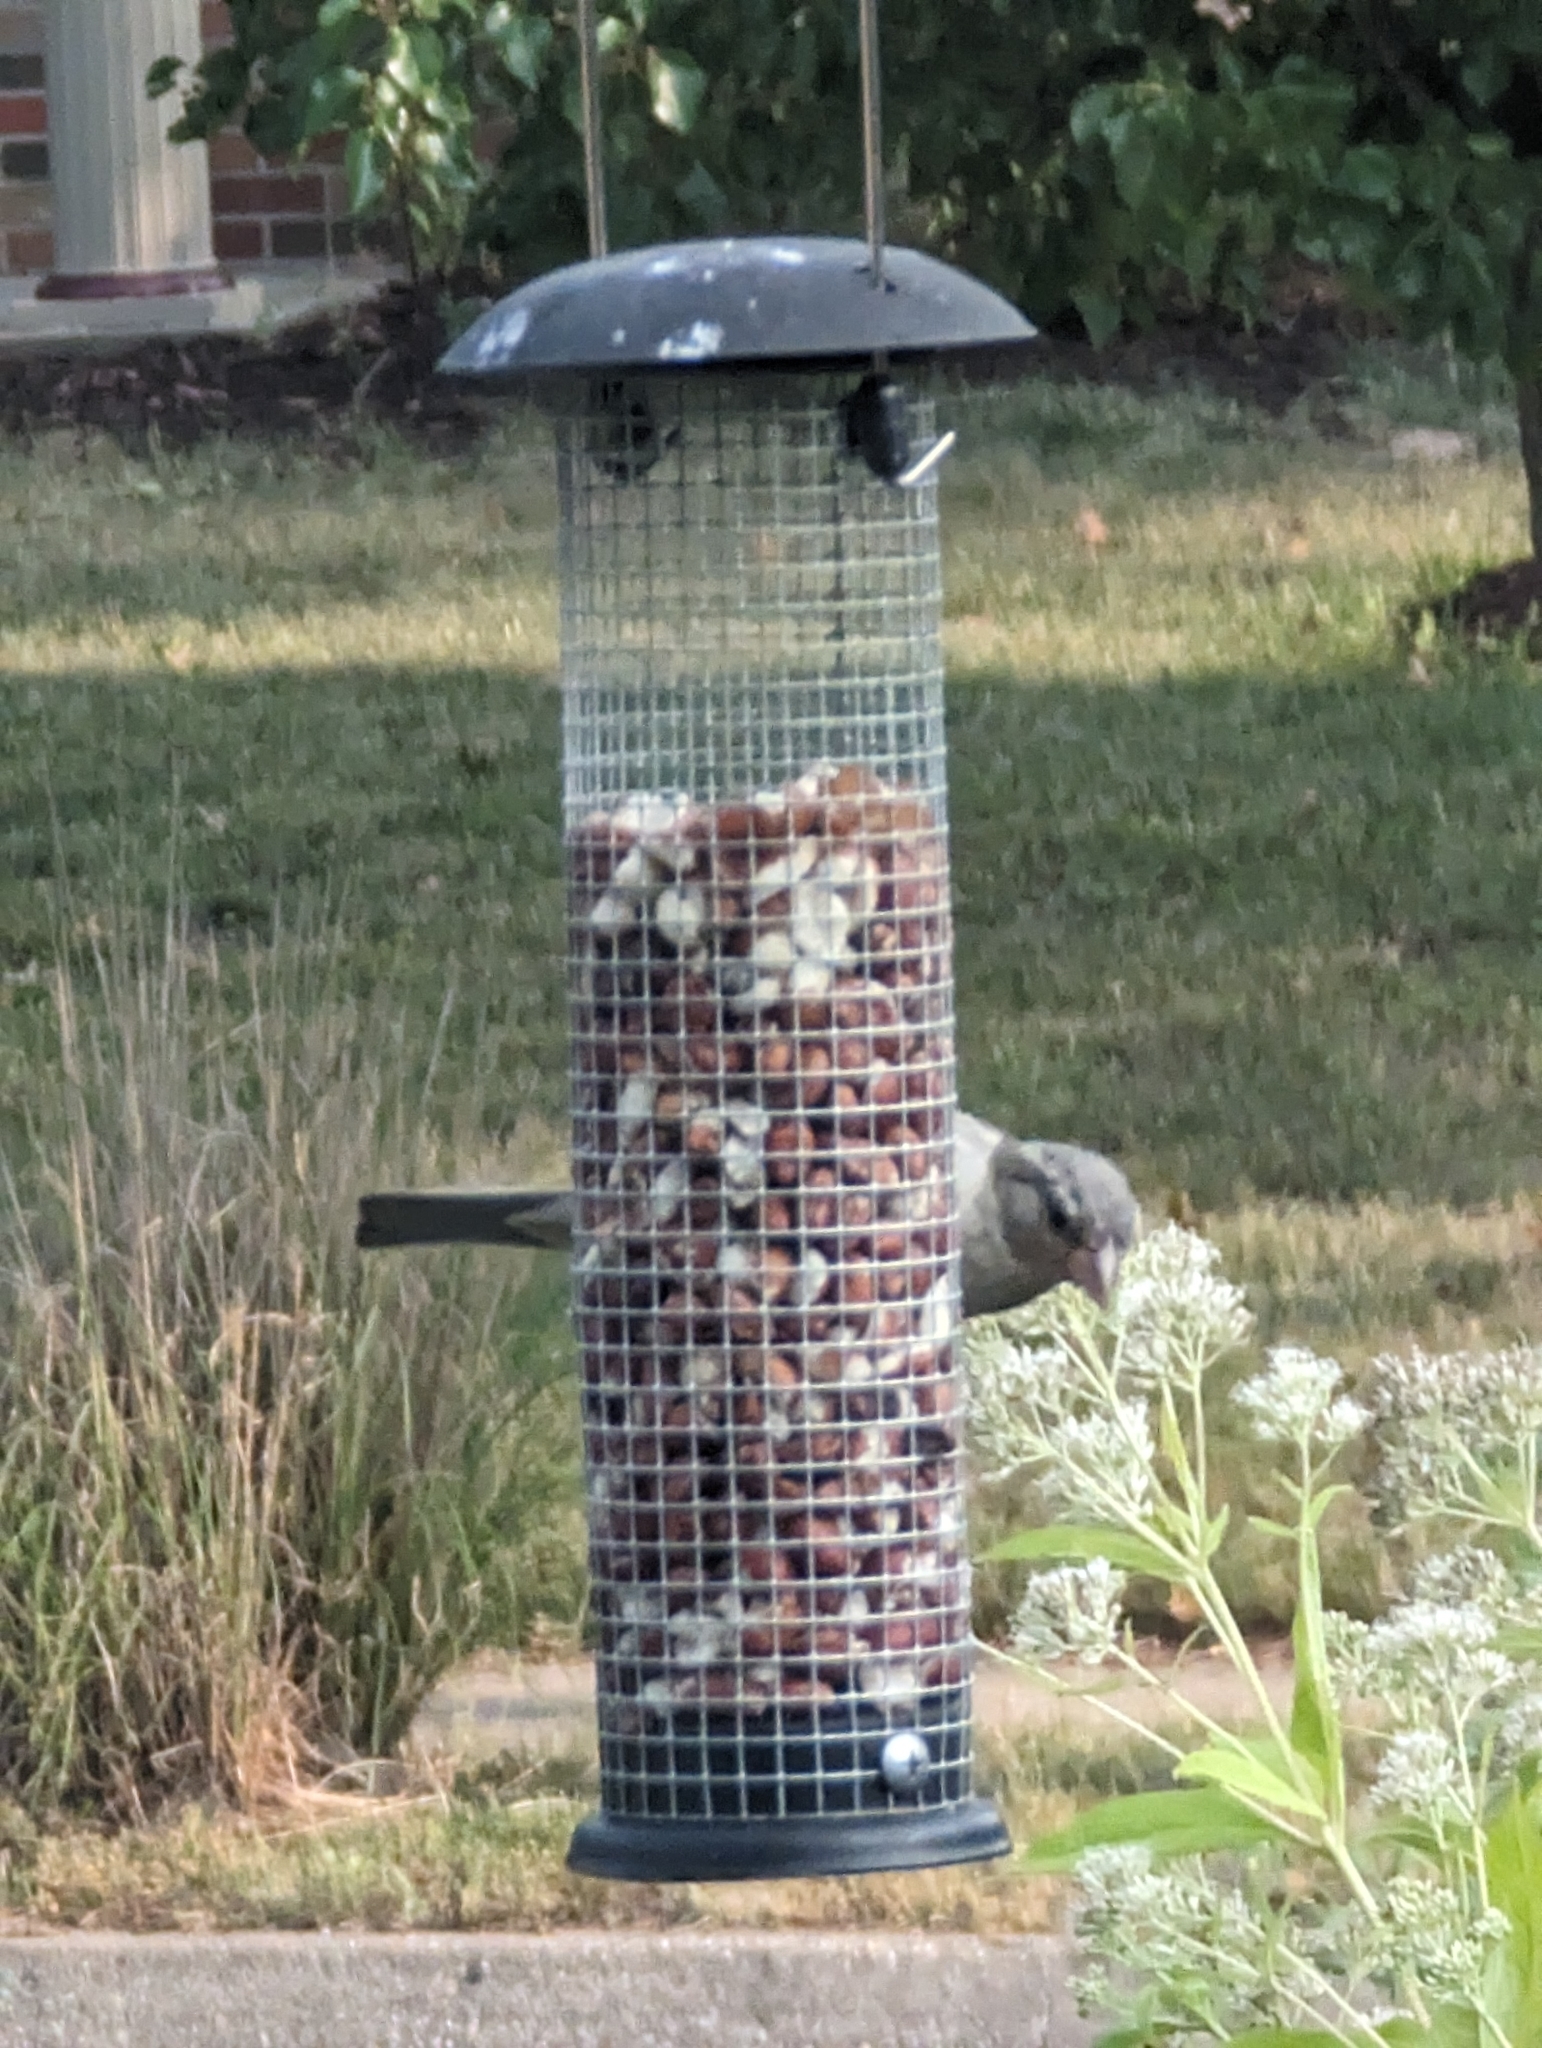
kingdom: Animalia
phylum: Chordata
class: Aves
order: Passeriformes
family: Passeridae
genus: Passer
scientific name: Passer domesticus
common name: House sparrow
